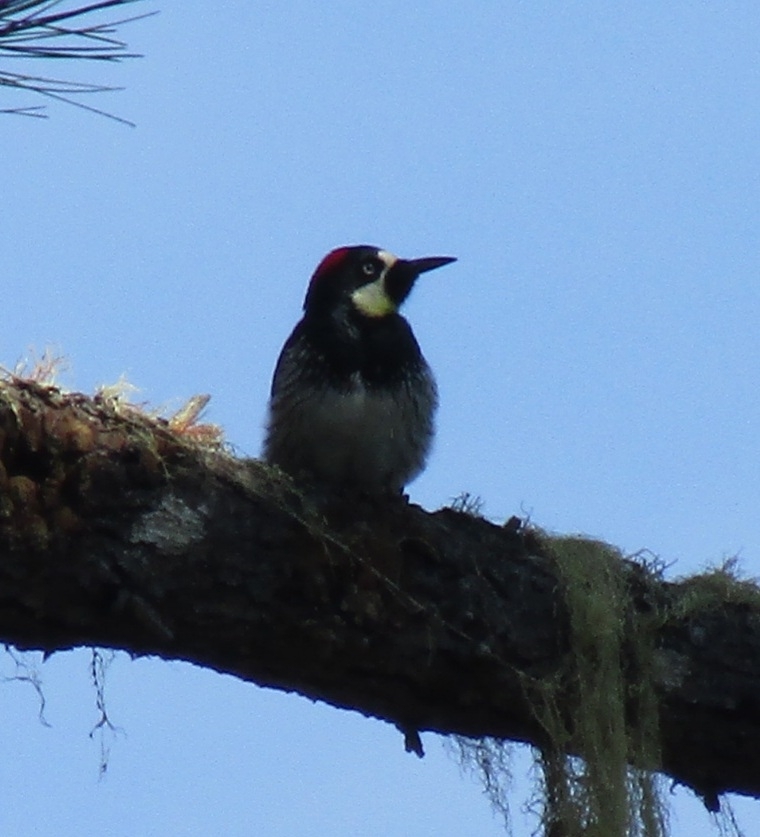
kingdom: Animalia
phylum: Chordata
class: Aves
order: Piciformes
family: Picidae
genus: Melanerpes
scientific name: Melanerpes formicivorus
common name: Acorn woodpecker
